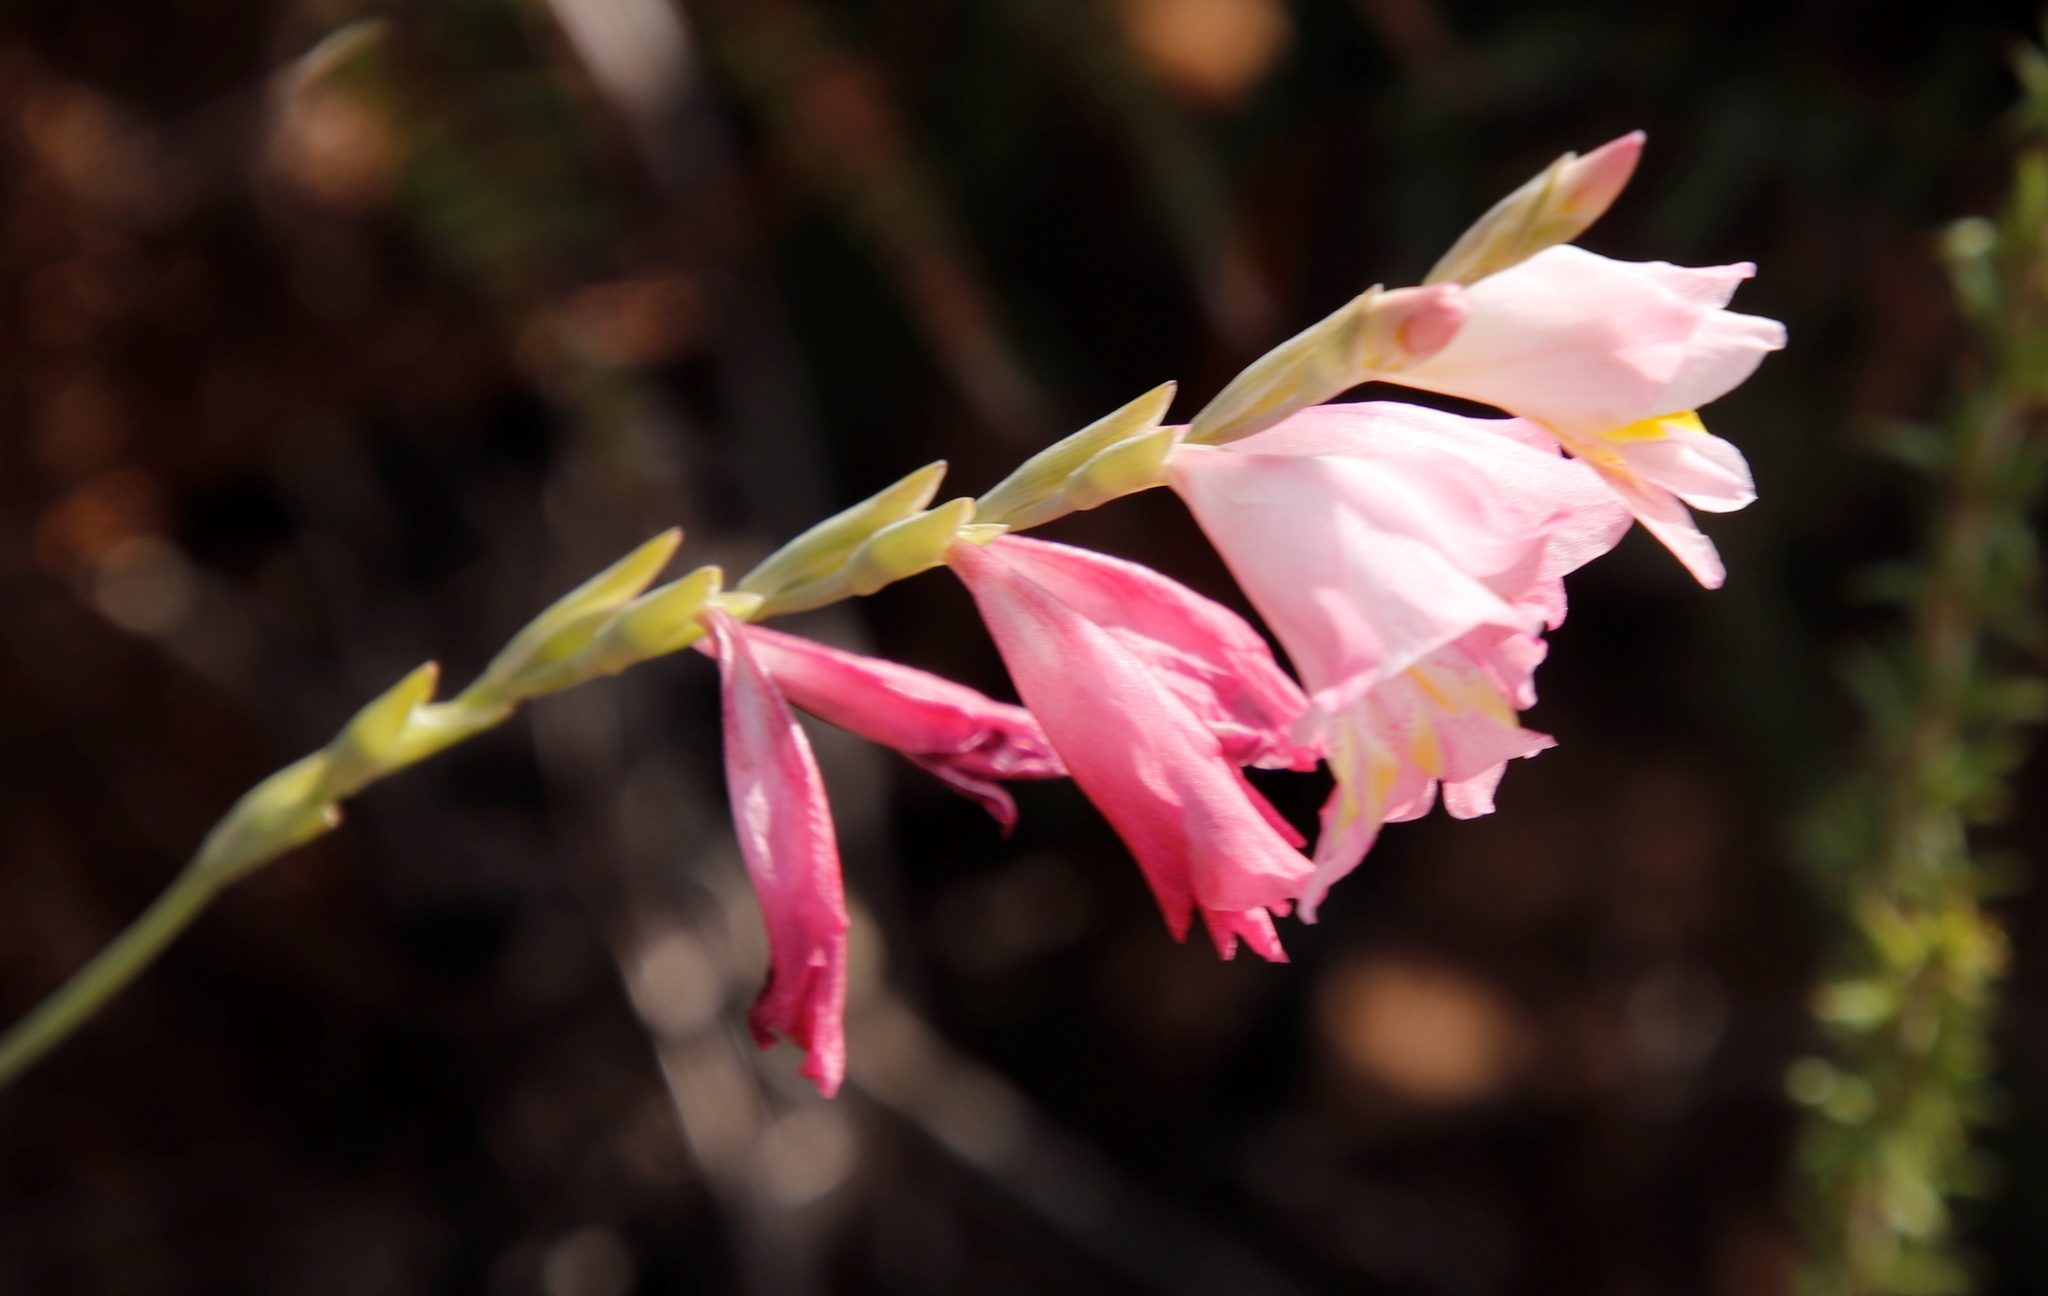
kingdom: Plantae
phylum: Tracheophyta
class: Liliopsida
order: Asparagales
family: Iridaceae
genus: Gladiolus
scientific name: Gladiolus brevifolius
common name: March pypie
